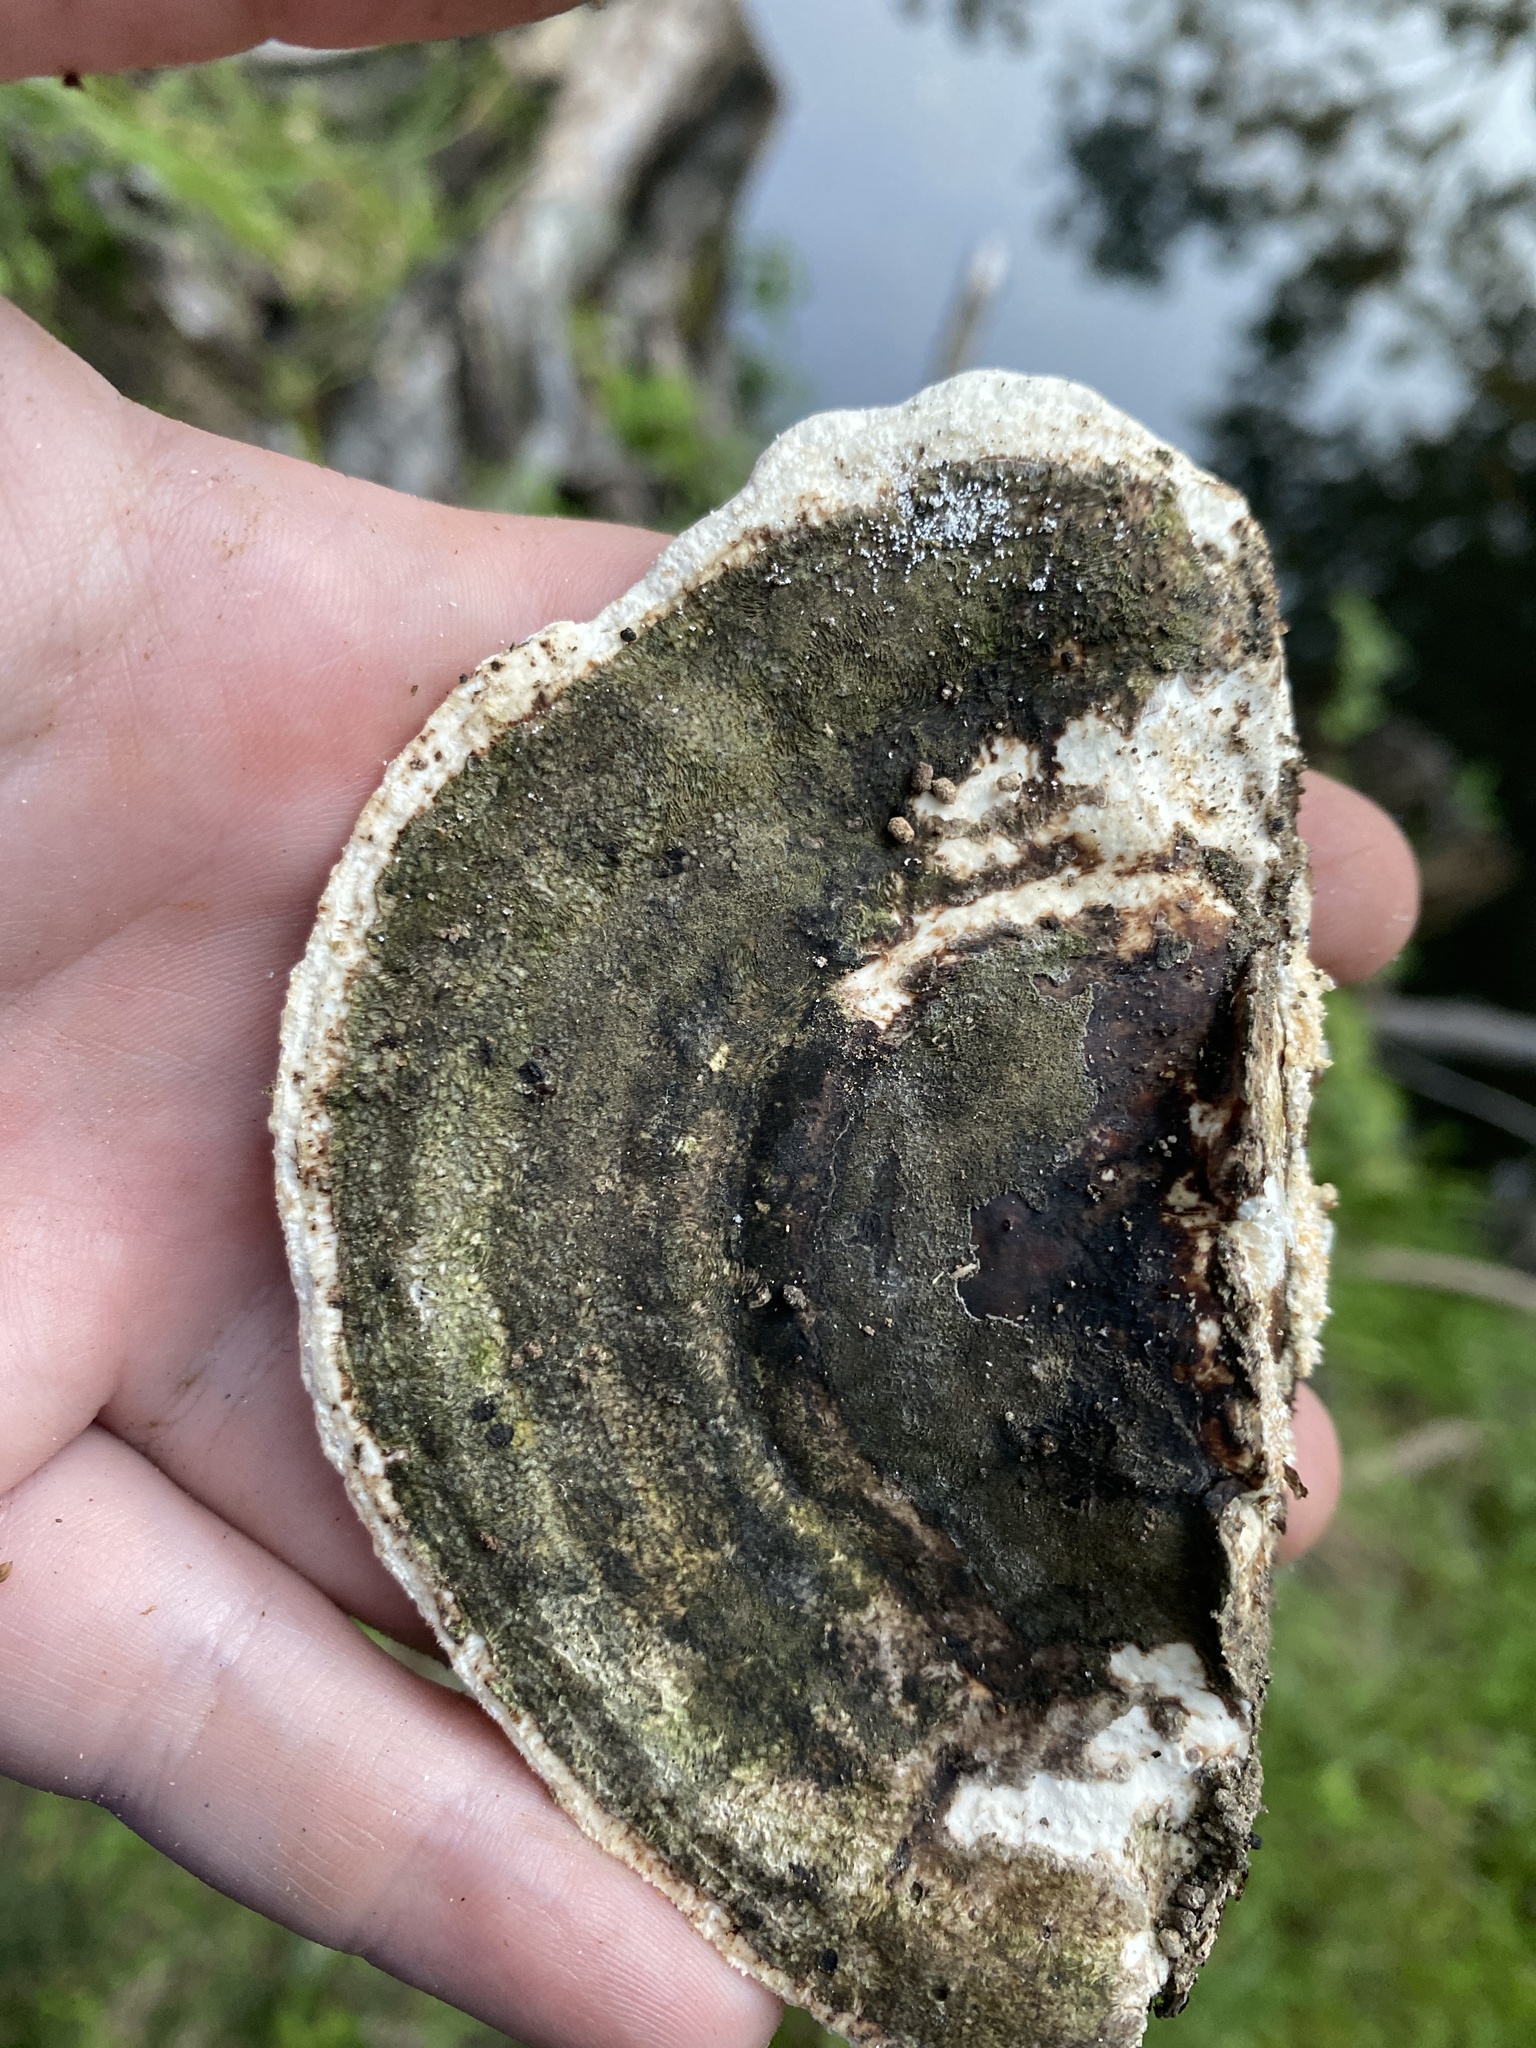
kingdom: Fungi
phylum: Basidiomycota
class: Agaricomycetes
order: Polyporales
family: Polyporaceae
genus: Trametes
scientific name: Trametes gibbosa
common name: Lumpy bracket
